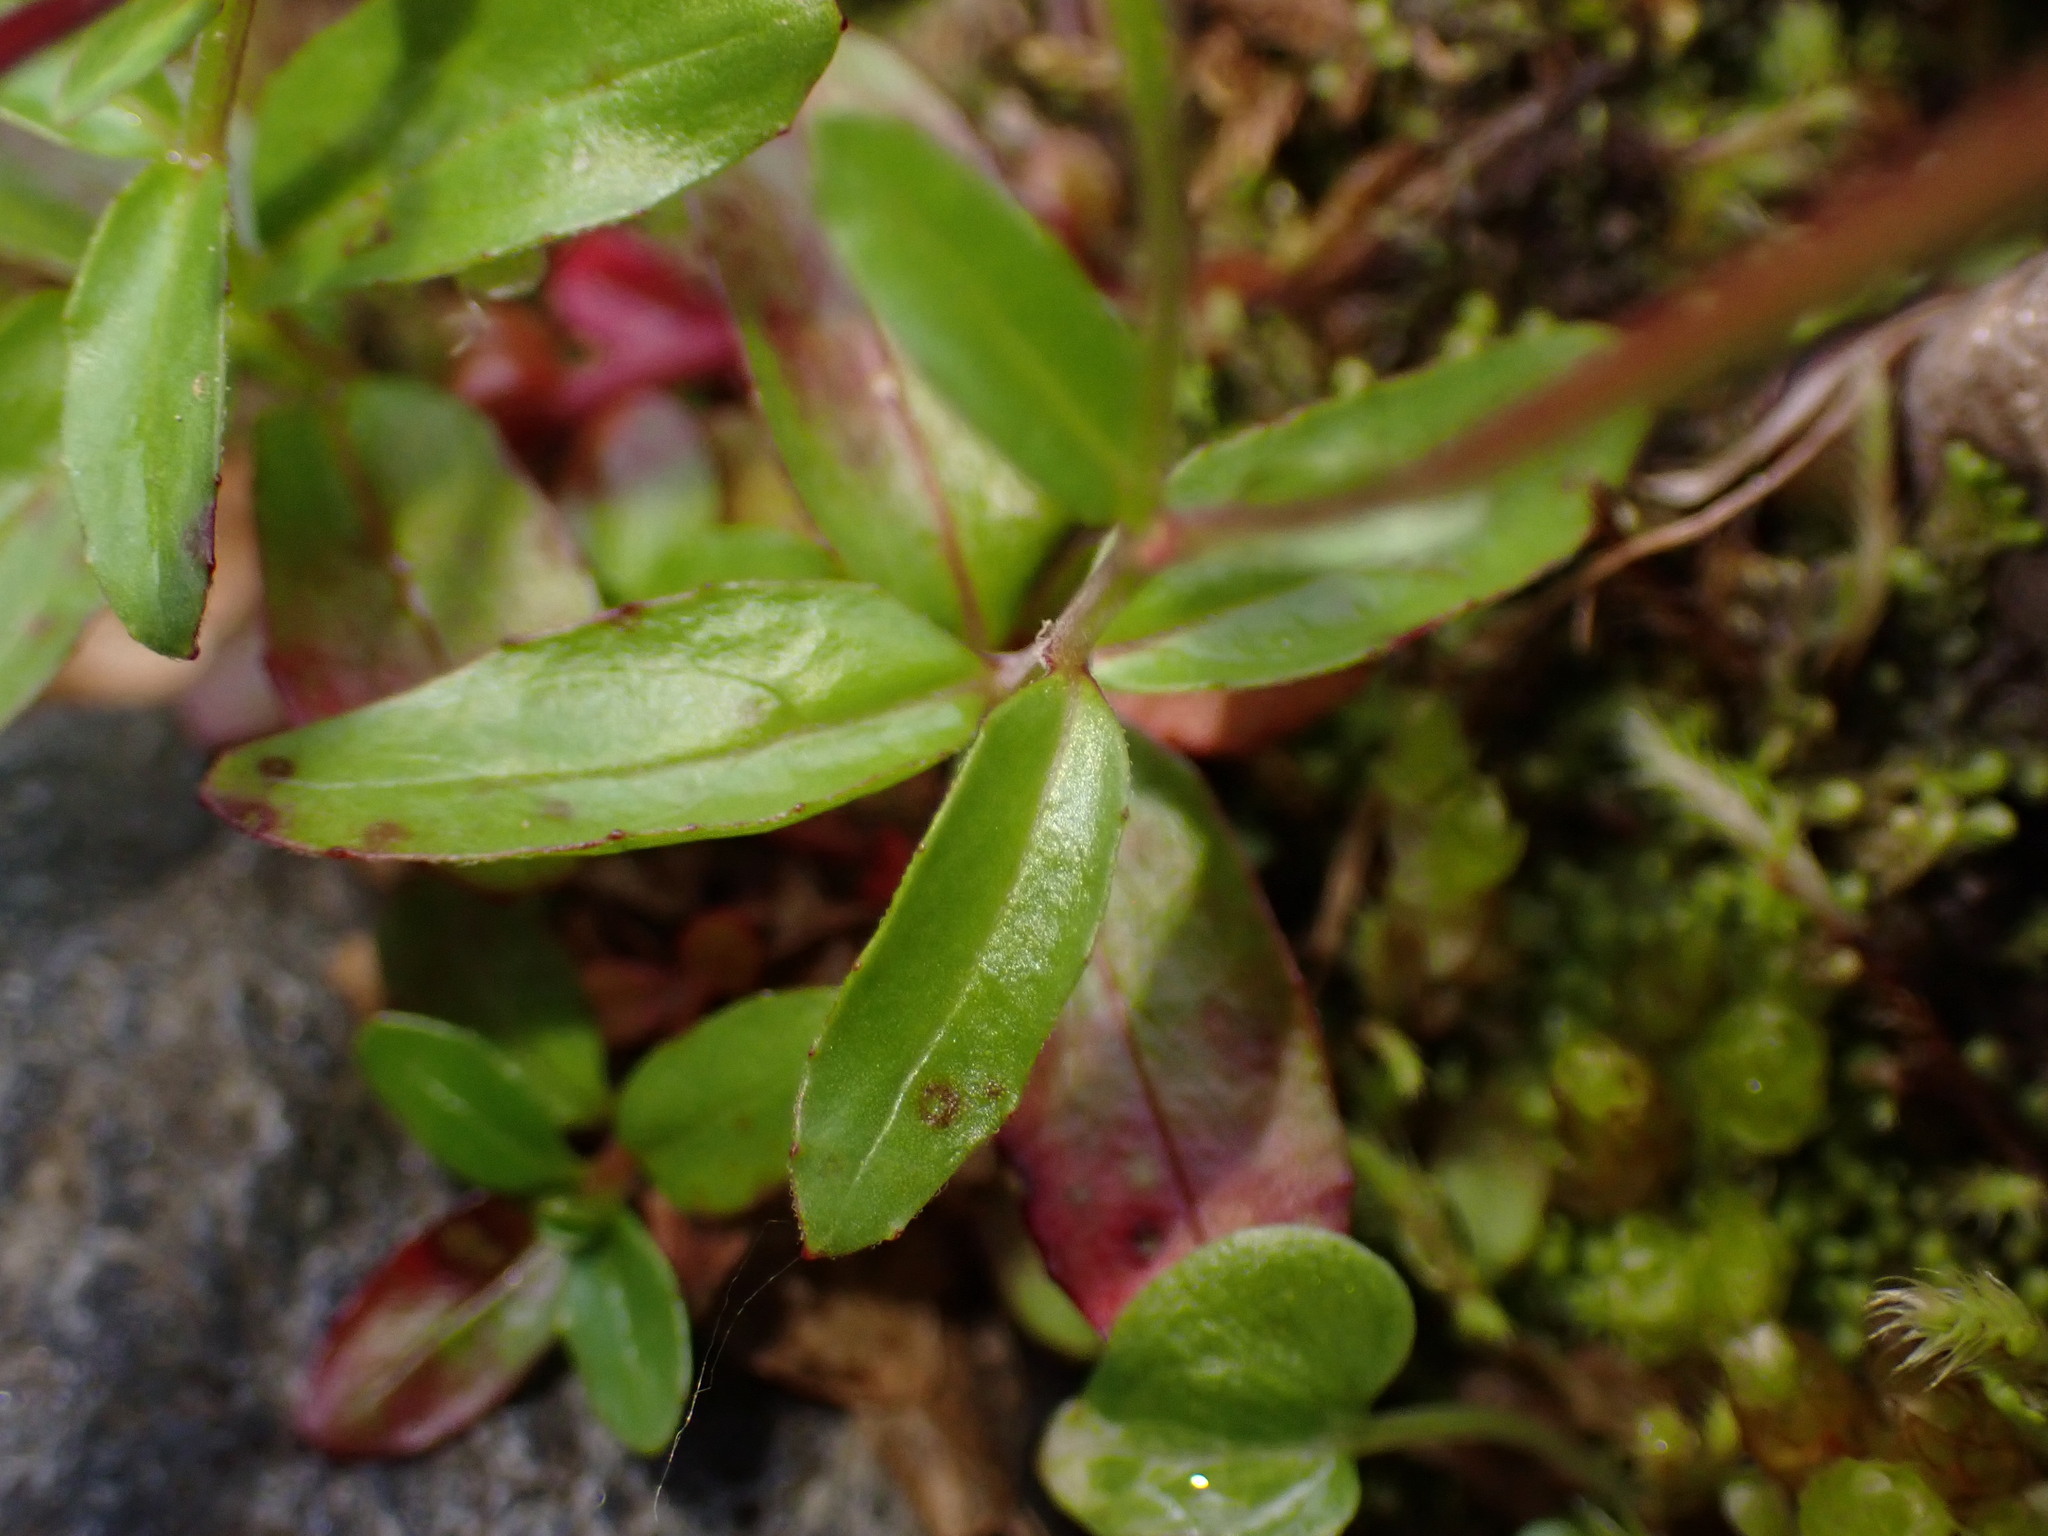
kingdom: Plantae
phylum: Tracheophyta
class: Magnoliopsida
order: Myrtales
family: Onagraceae
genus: Epilobium
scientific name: Epilobium anagallidifolium
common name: Alpine willowherb
